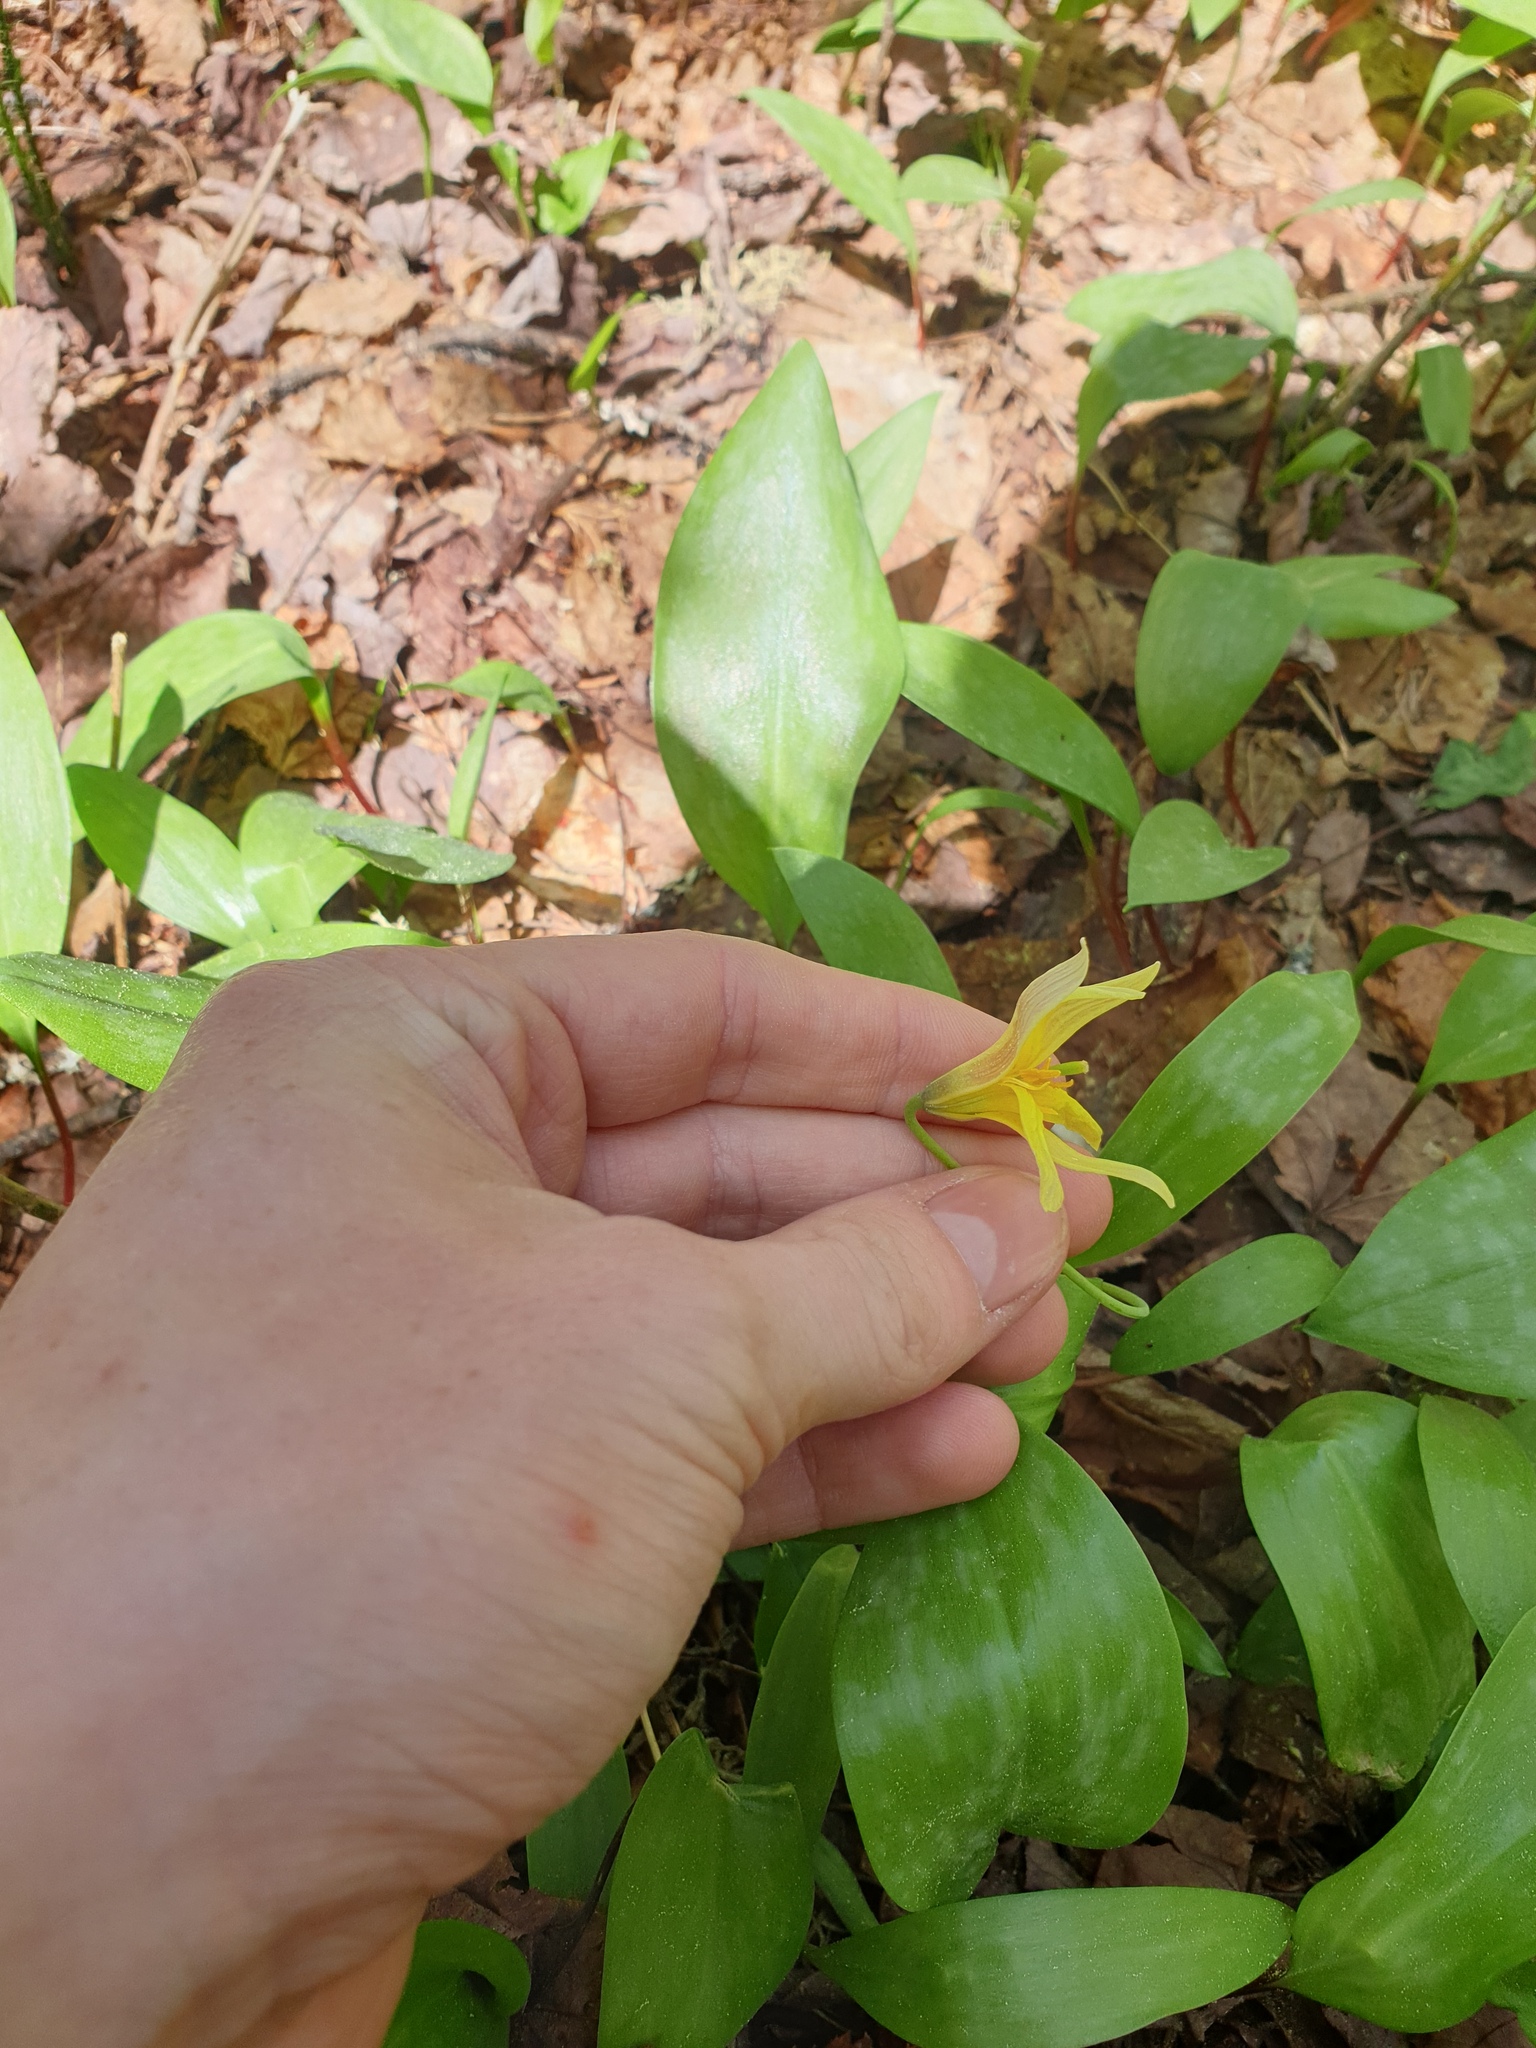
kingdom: Plantae
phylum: Tracheophyta
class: Liliopsida
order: Liliales
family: Liliaceae
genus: Erythronium
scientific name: Erythronium americanum
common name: Yellow adder's-tongue
